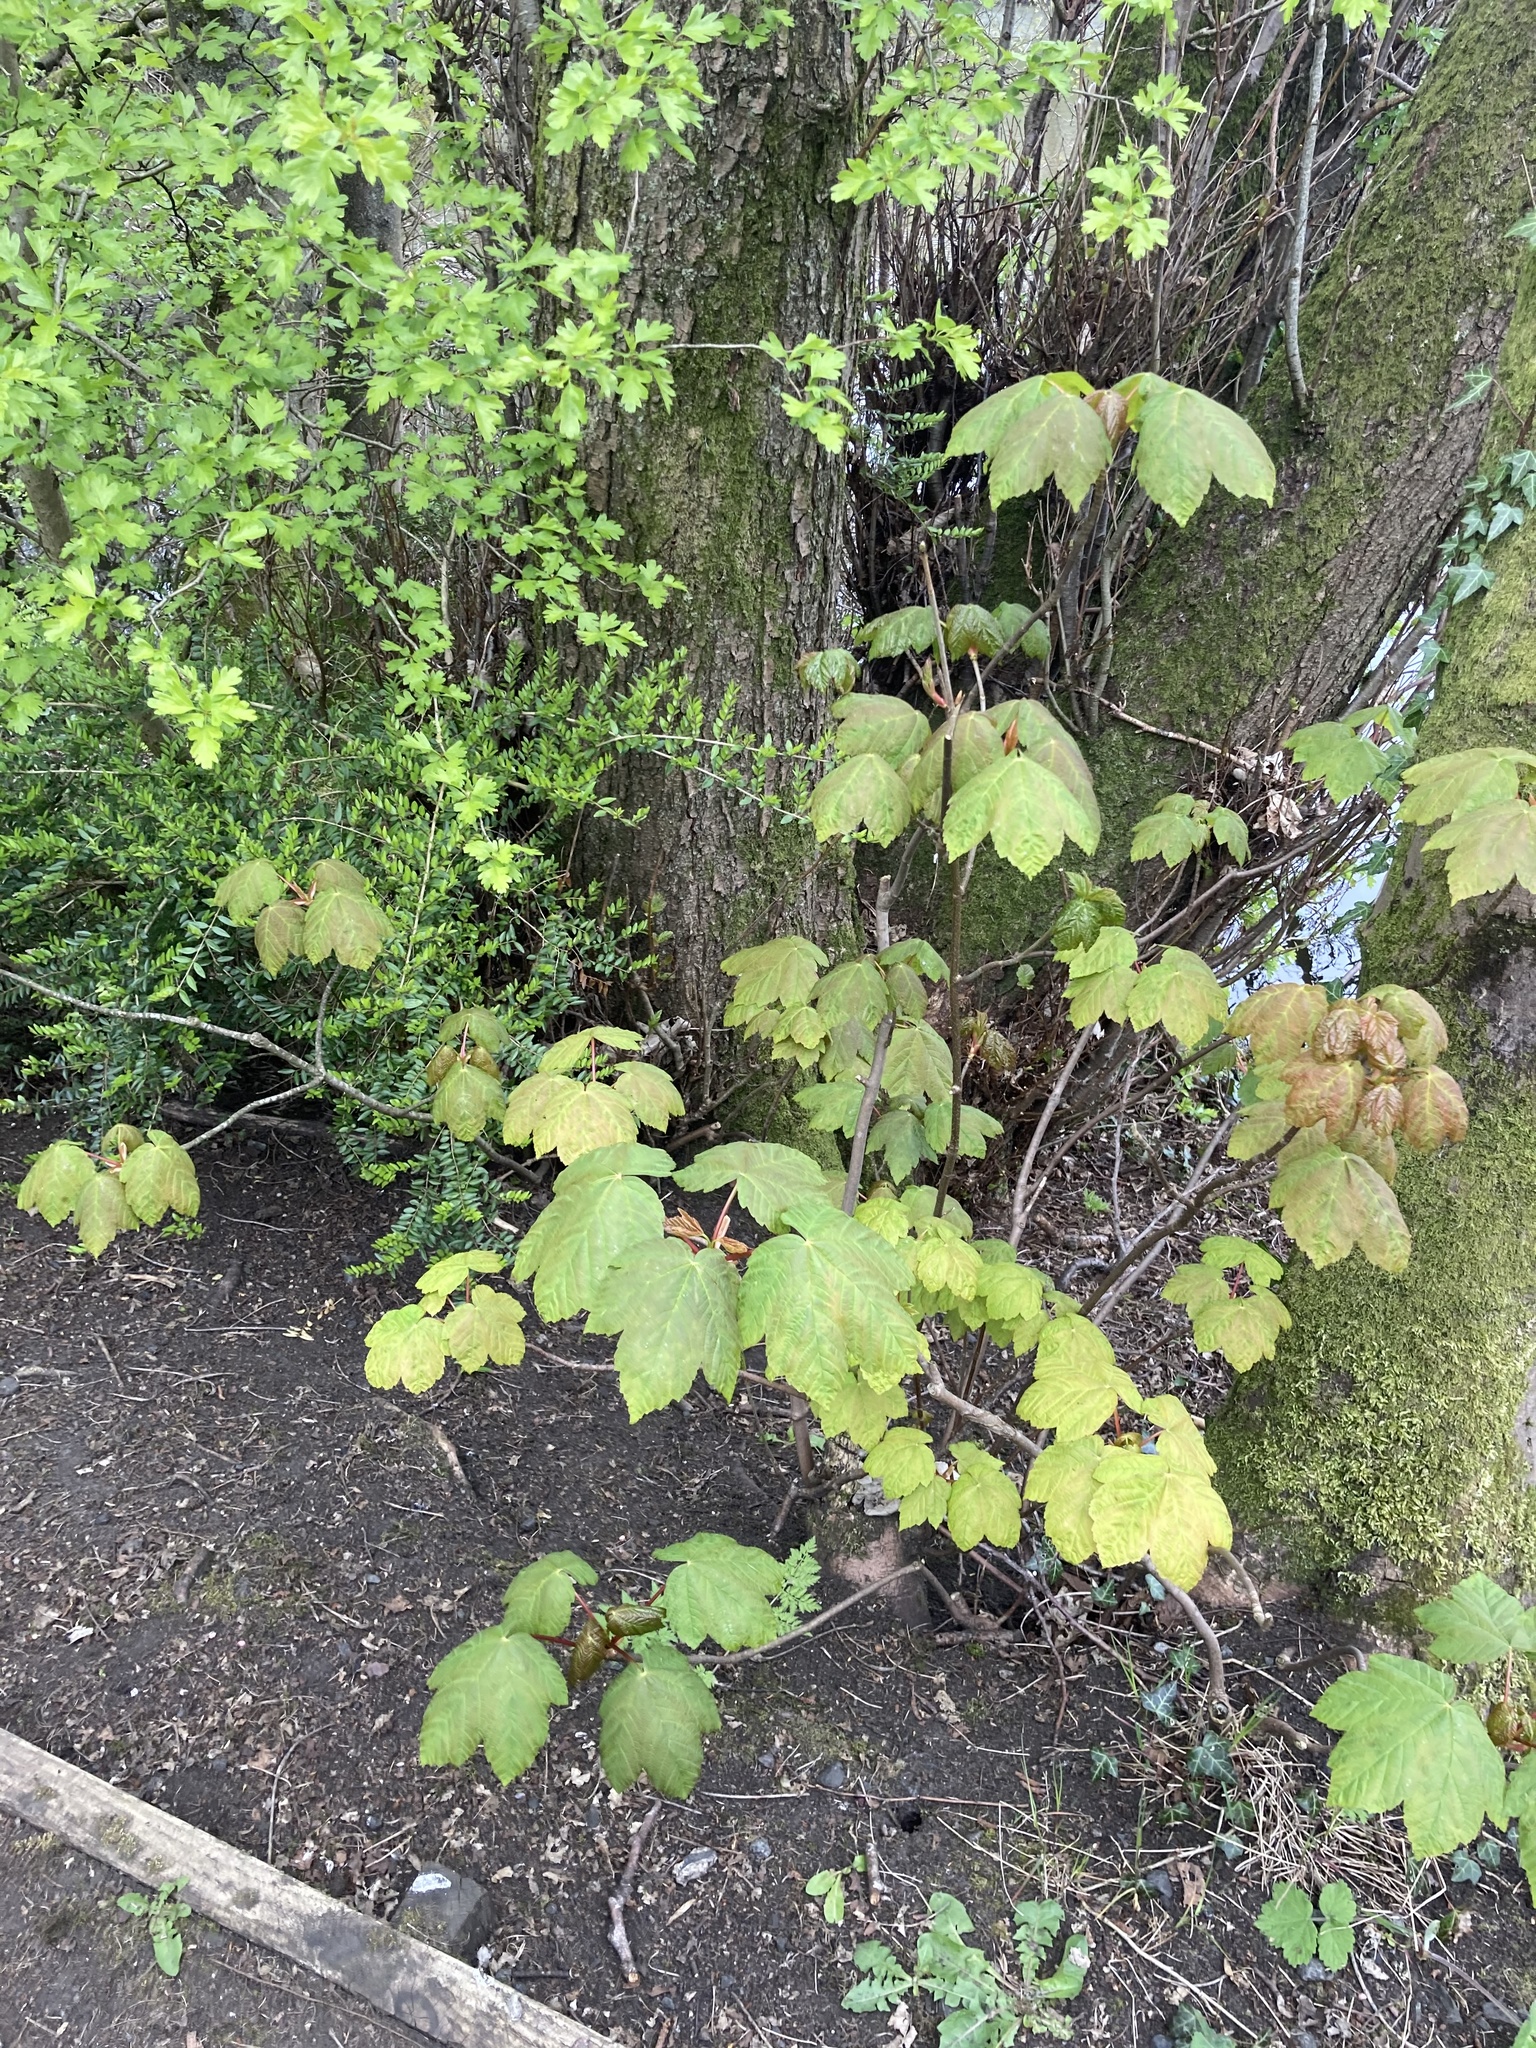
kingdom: Plantae
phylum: Tracheophyta
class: Magnoliopsida
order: Sapindales
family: Sapindaceae
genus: Acer
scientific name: Acer pseudoplatanus
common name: Sycamore
